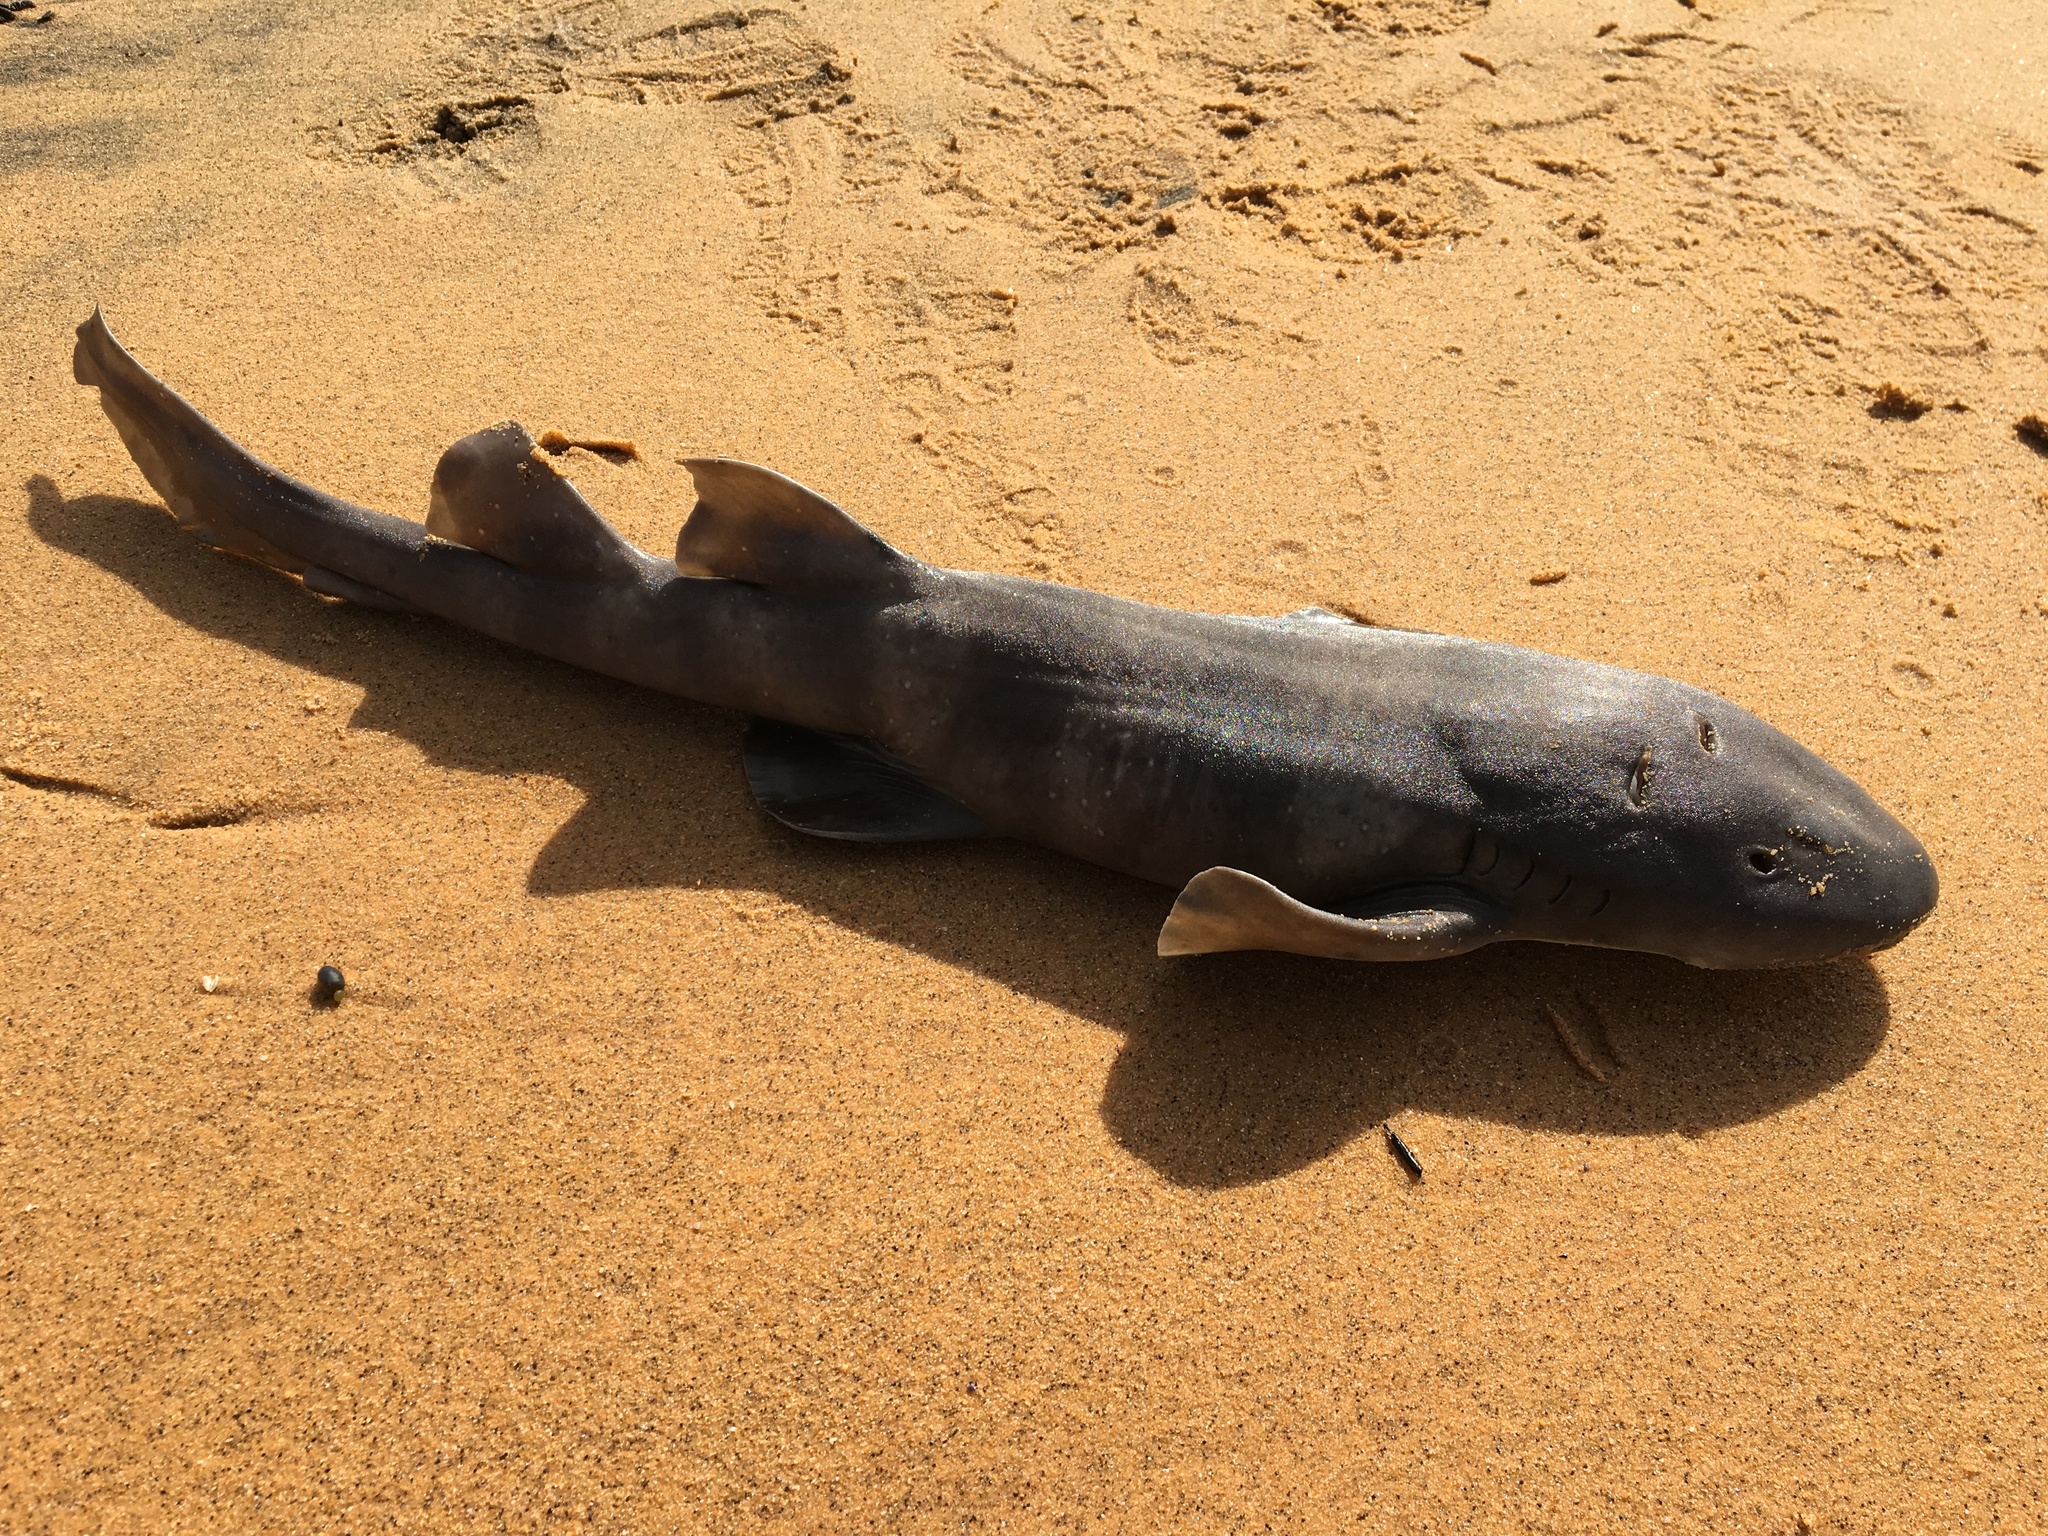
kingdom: Animalia
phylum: Chordata
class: Elasmobranchii
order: Orectolobiformes
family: Brachaeluridae
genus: Brachaelurus
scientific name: Brachaelurus waddi
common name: Blind shark
